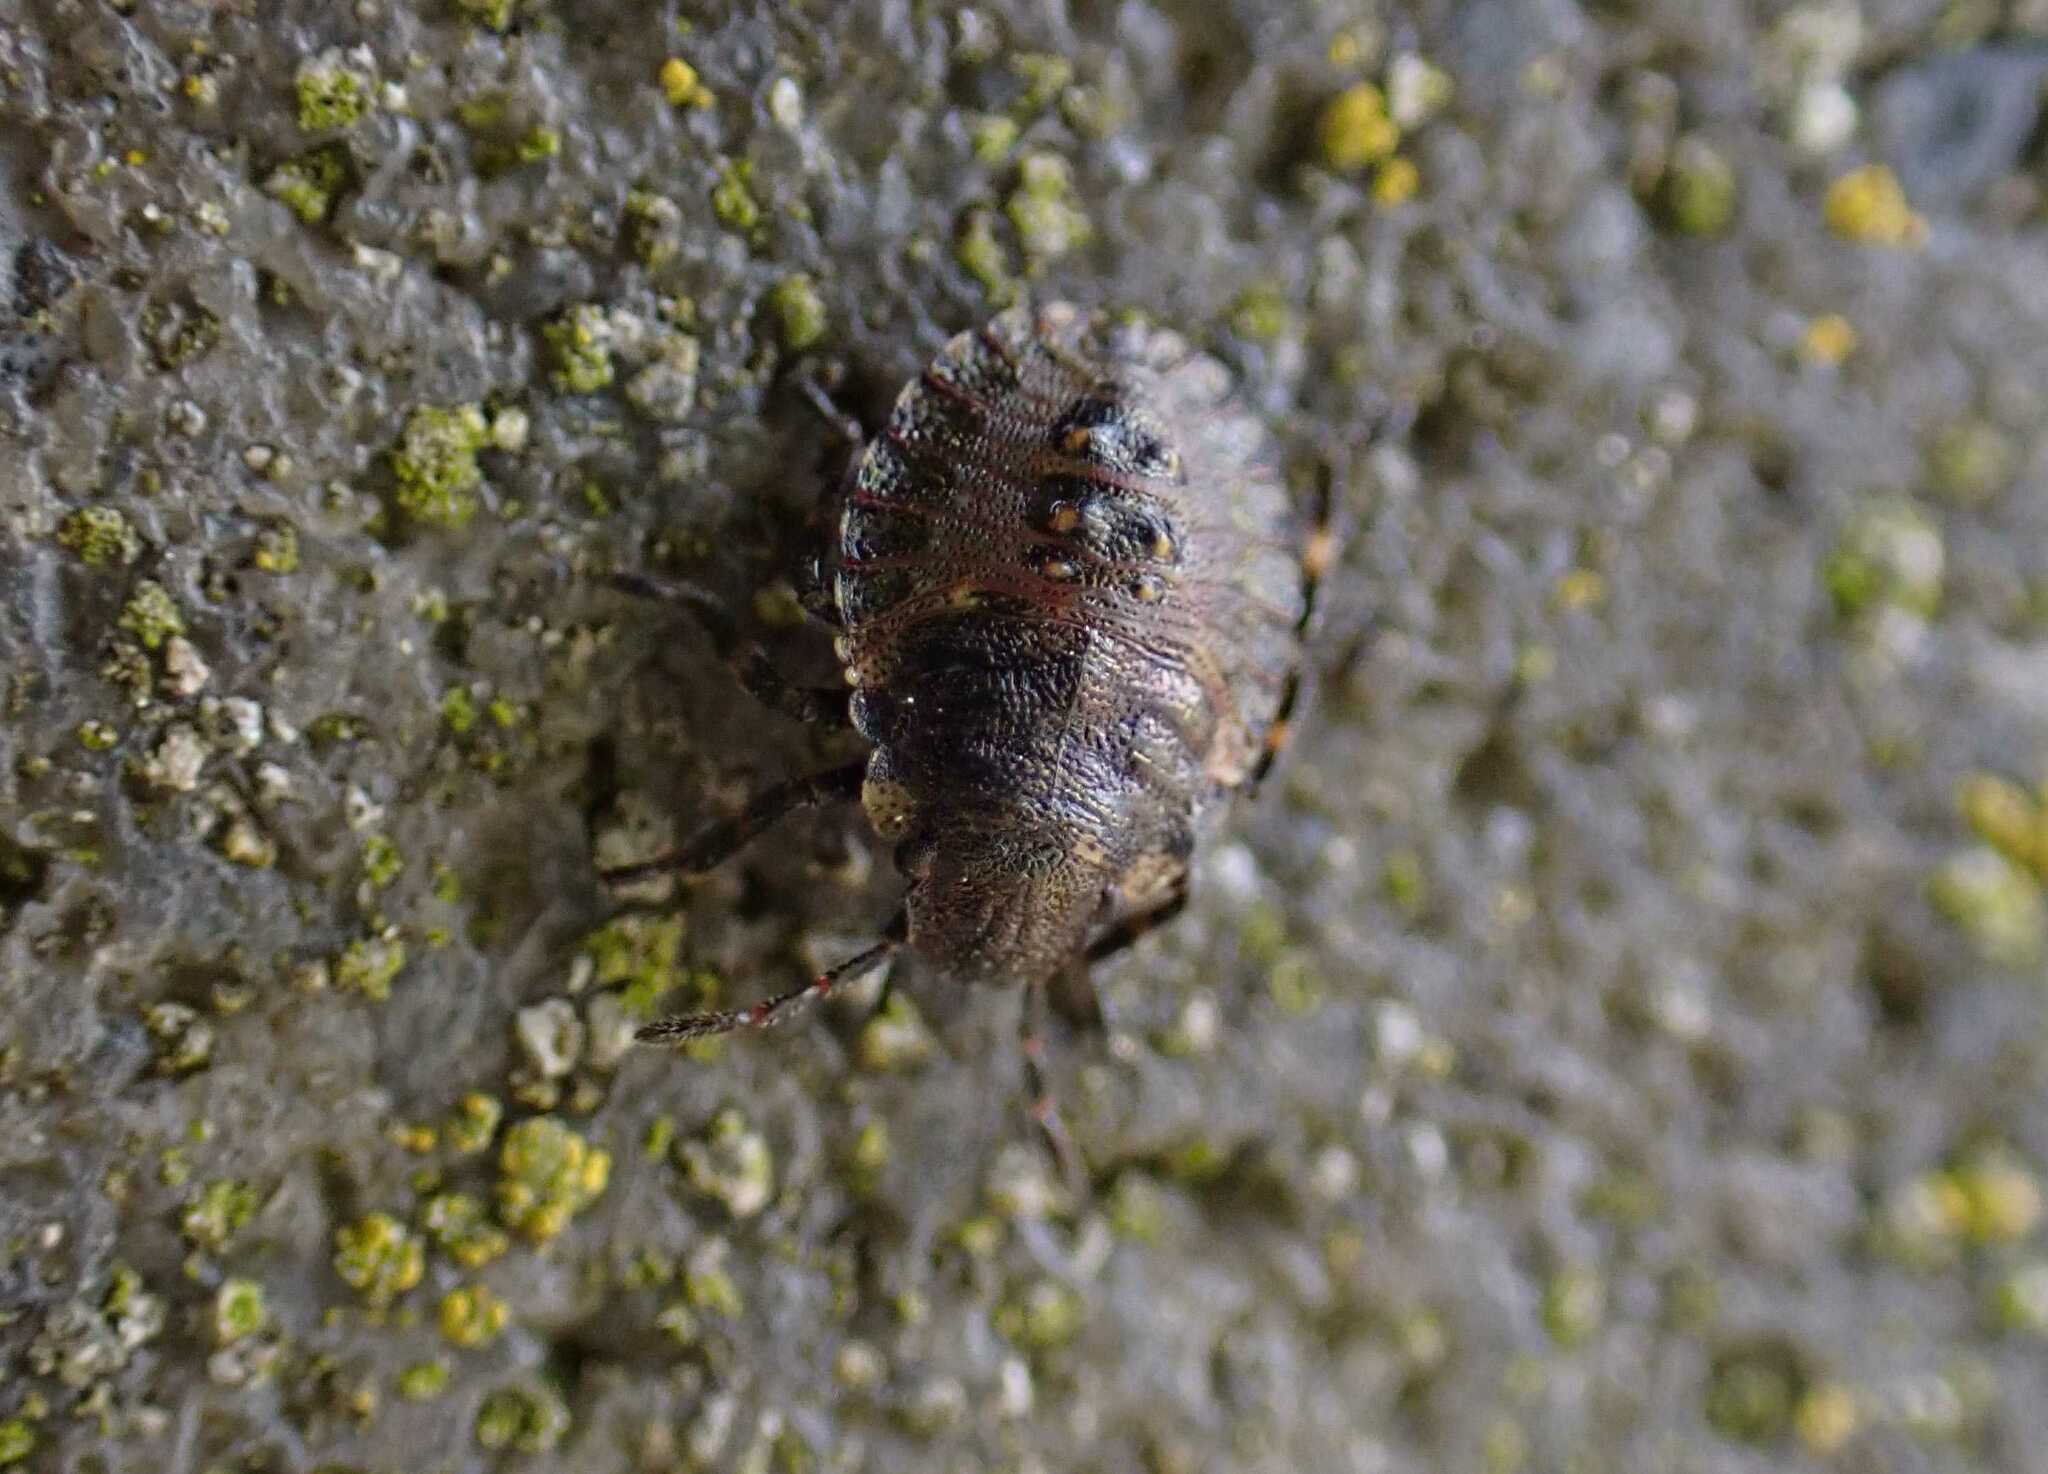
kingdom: Animalia
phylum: Arthropoda
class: Insecta
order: Hemiptera
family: Pentatomidae
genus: Pentatoma
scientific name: Pentatoma rufipes
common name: Forest bug
